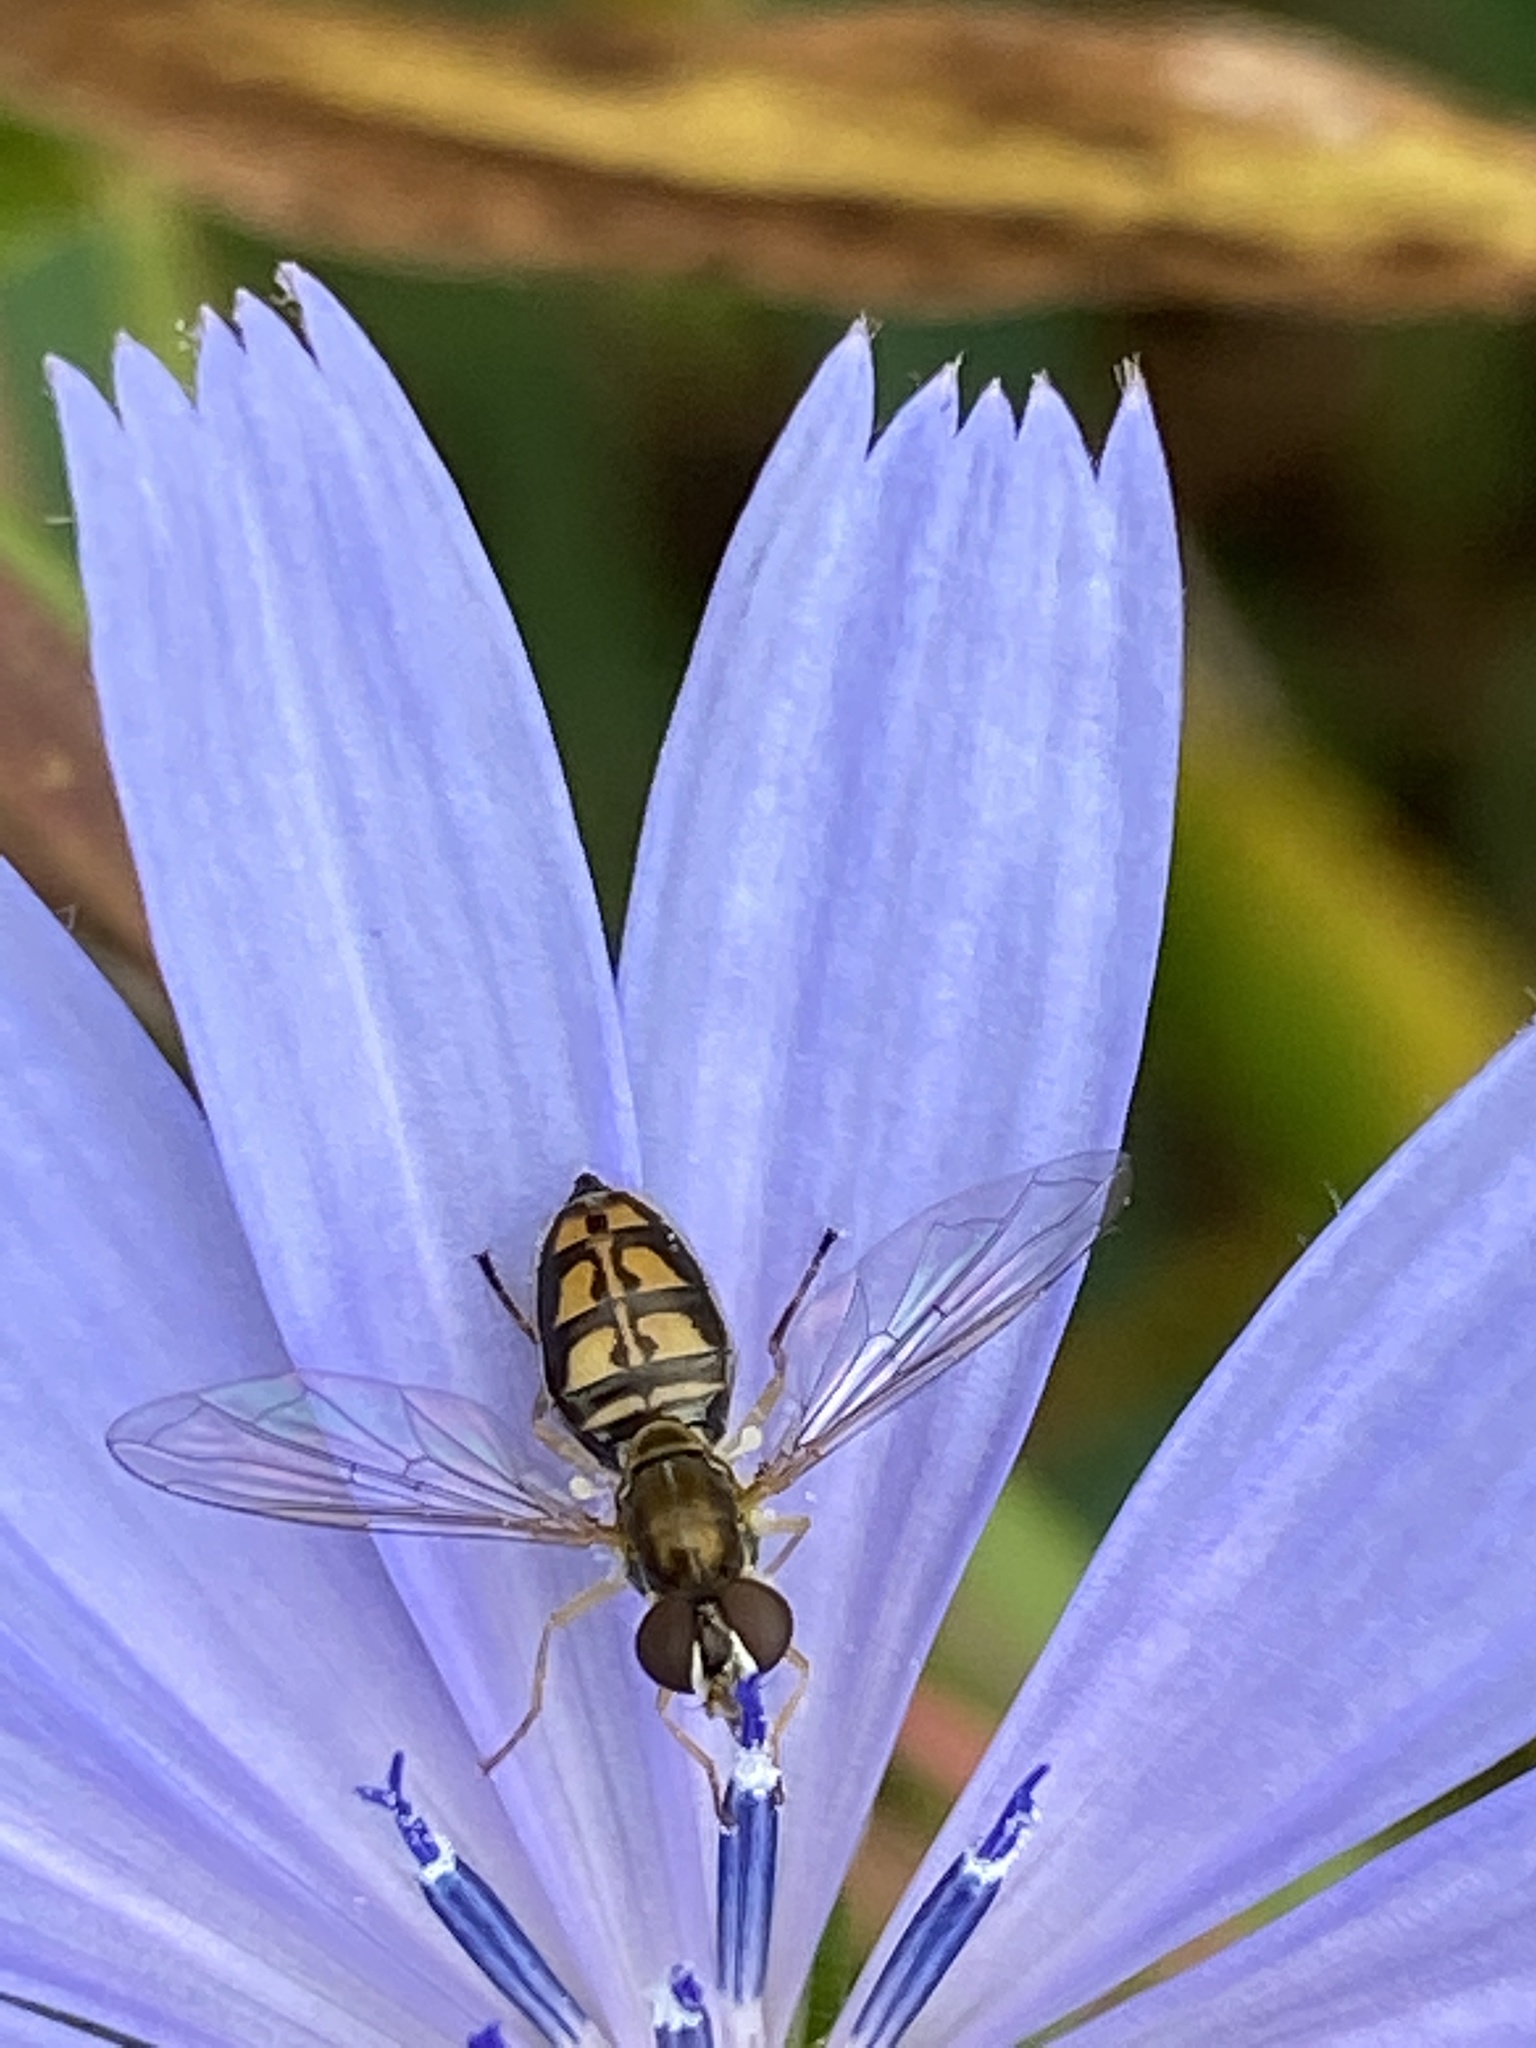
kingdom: Animalia
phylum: Arthropoda
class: Insecta
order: Diptera
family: Syrphidae
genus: Toxomerus
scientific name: Toxomerus marginatus
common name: Syrphid fly
